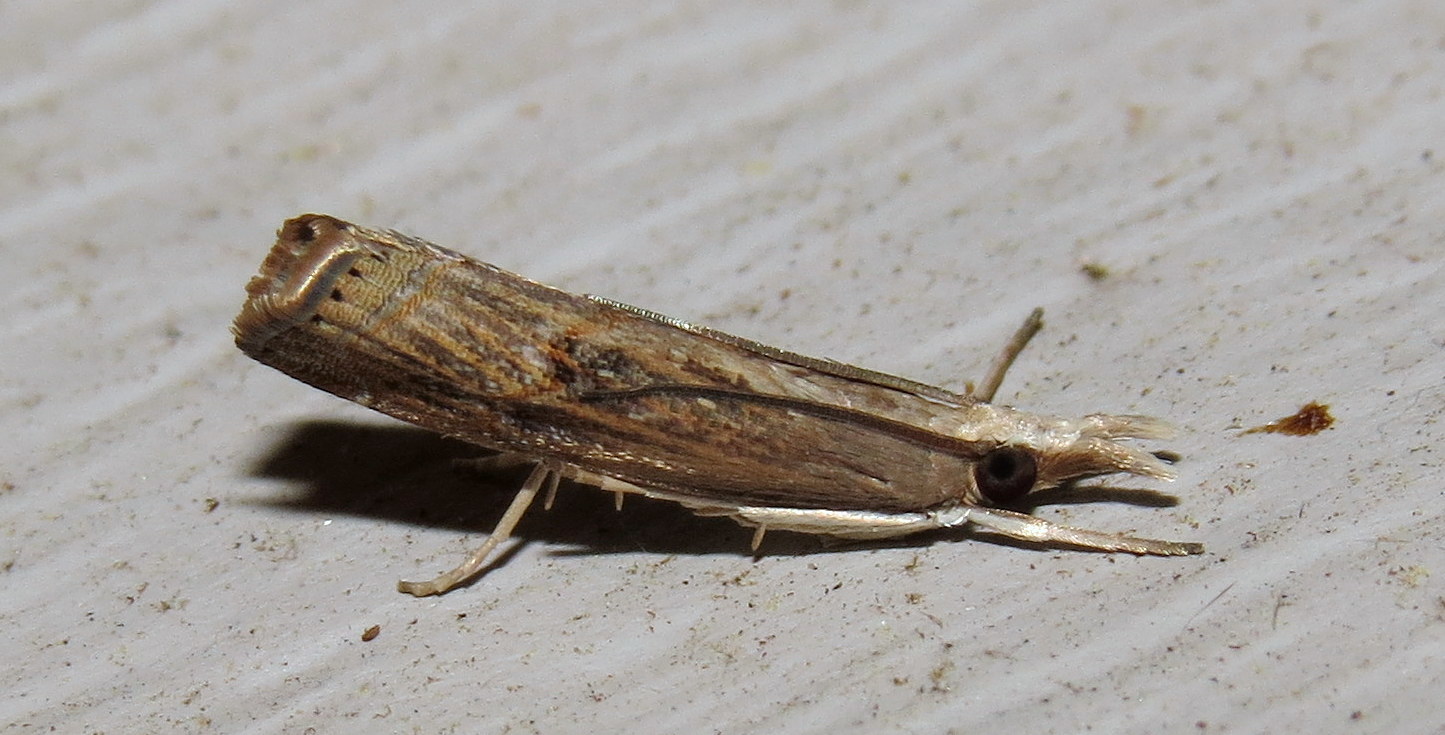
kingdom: Animalia
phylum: Arthropoda
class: Insecta
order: Lepidoptera
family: Crambidae
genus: Parapediasia
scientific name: Parapediasia teterellus
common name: Bluegrass webworm moth
